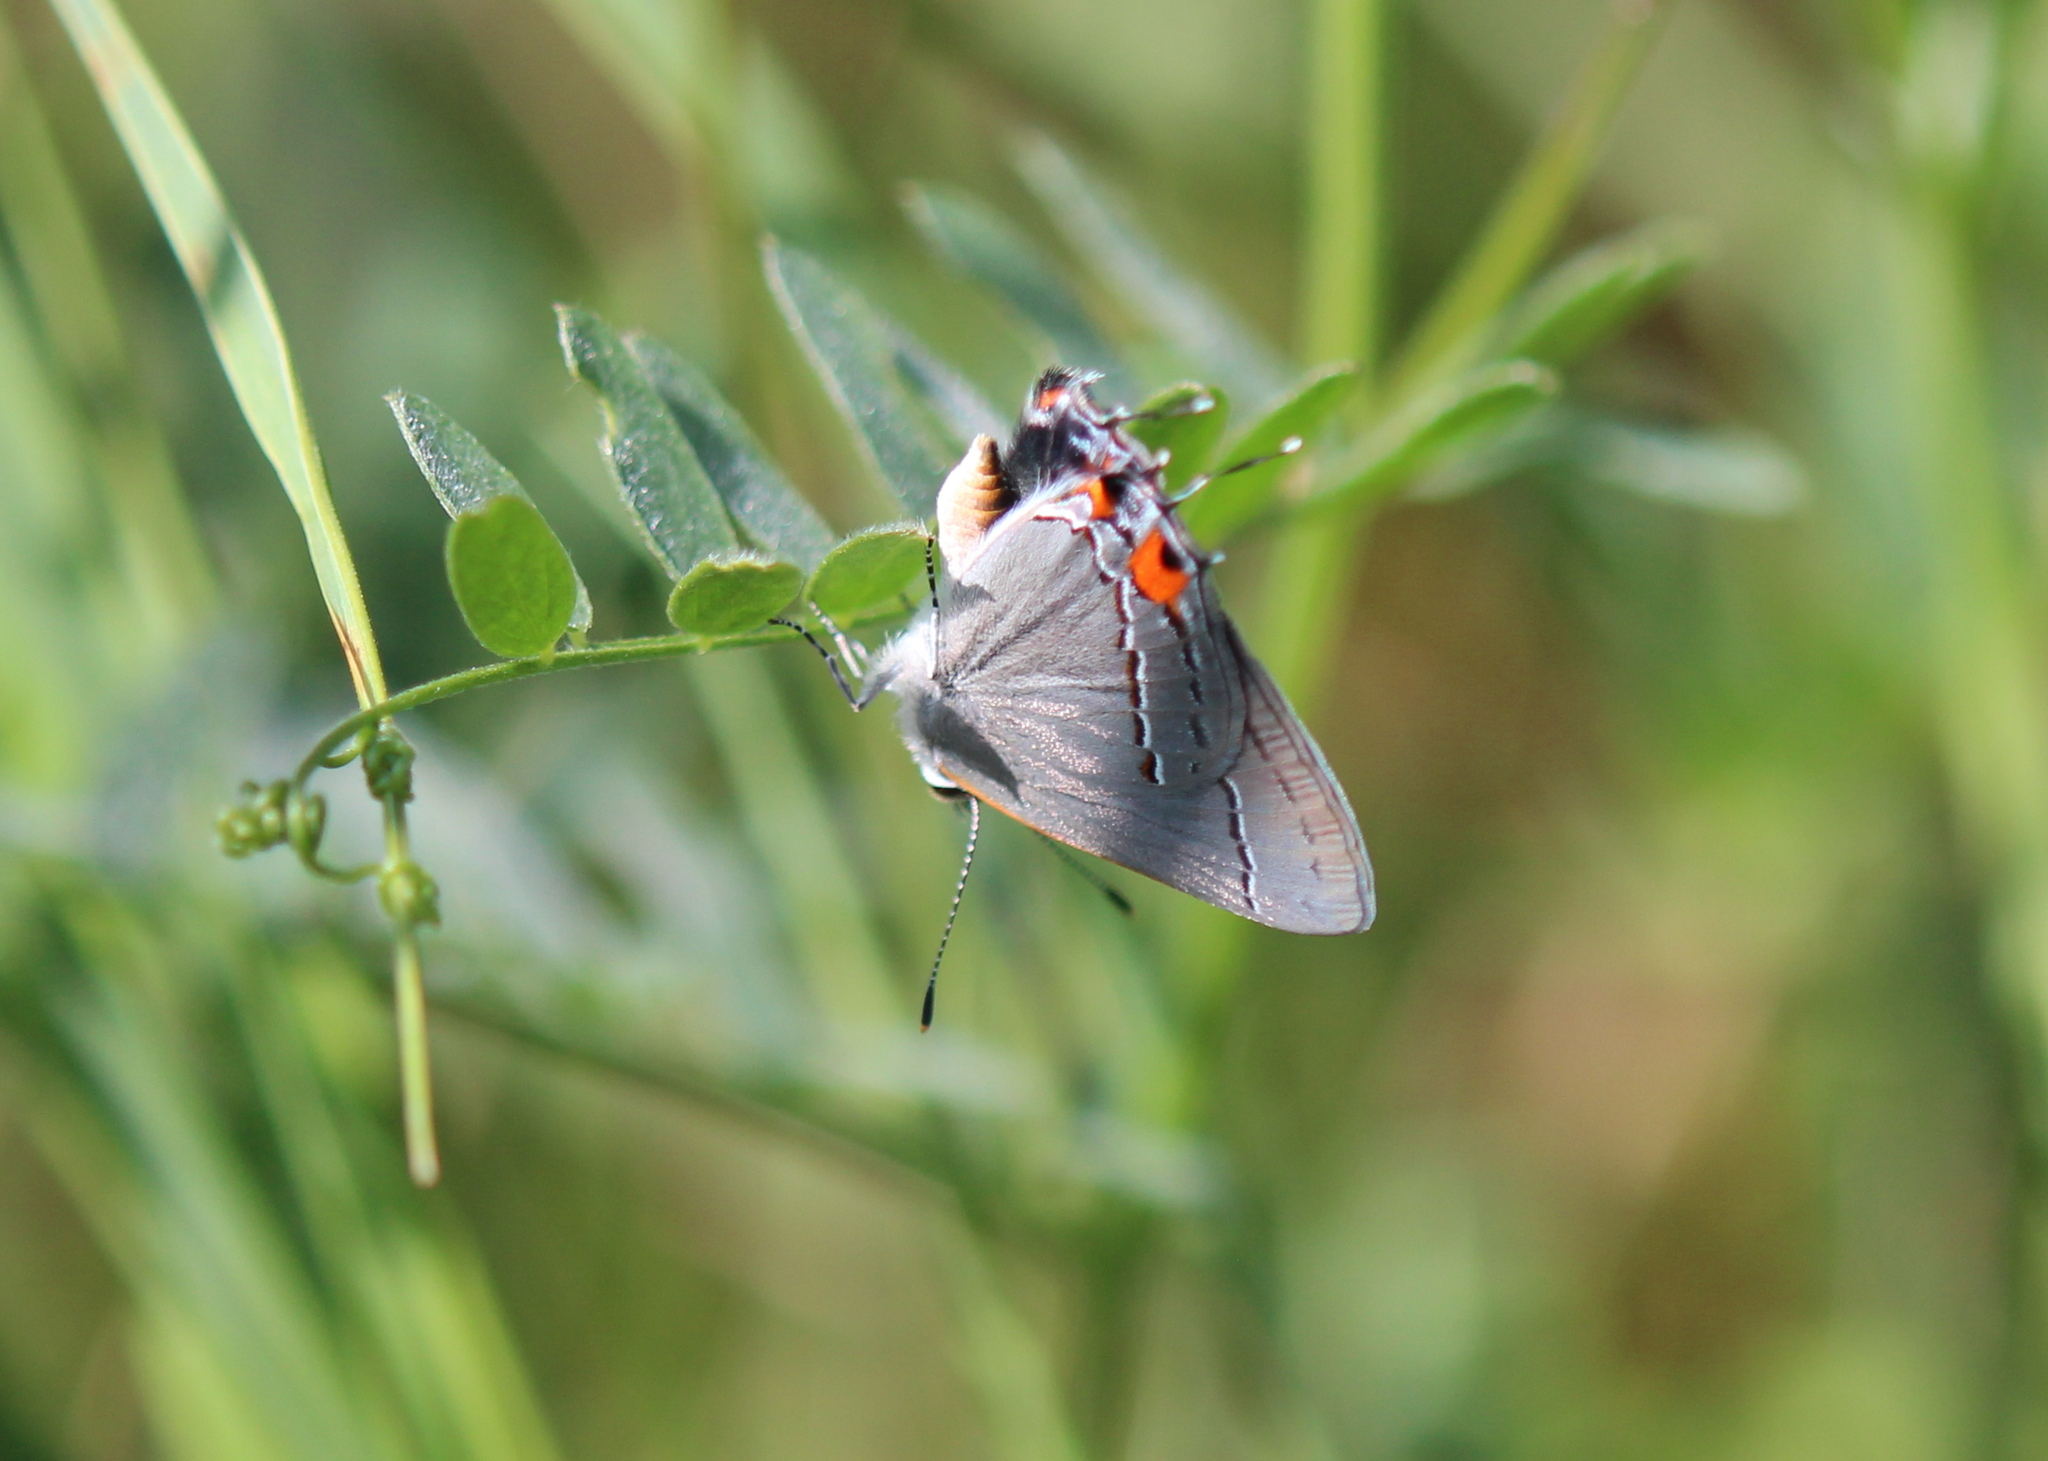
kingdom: Animalia
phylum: Arthropoda
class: Insecta
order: Lepidoptera
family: Lycaenidae
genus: Strymon
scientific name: Strymon melinus
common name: Gray hairstreak
